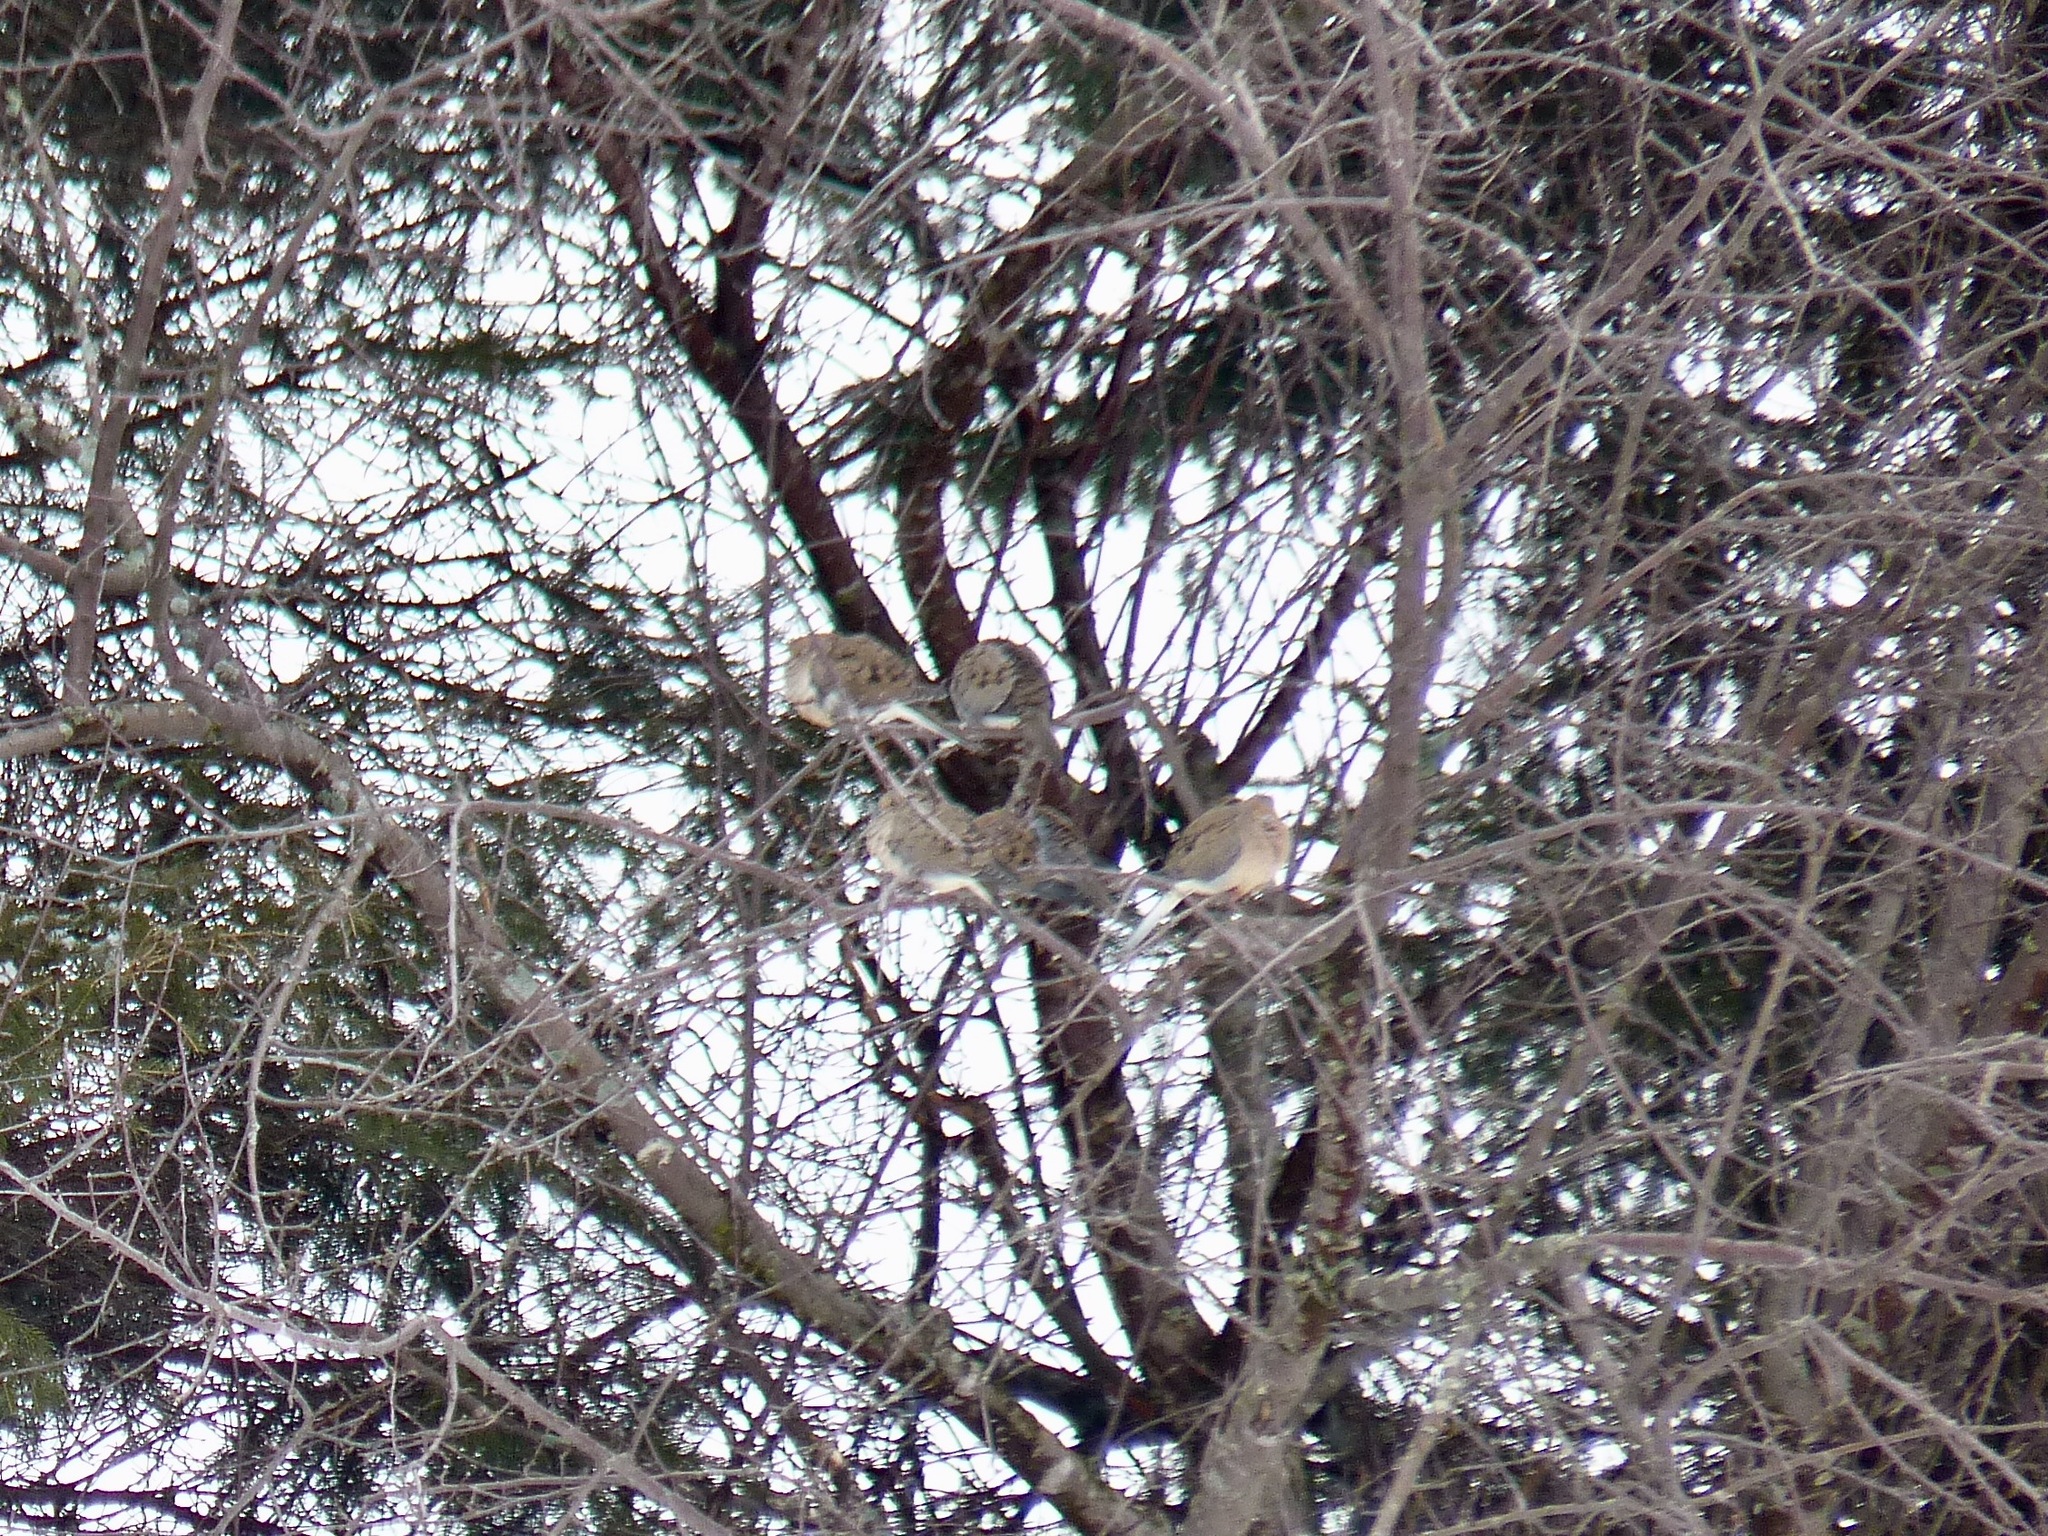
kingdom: Animalia
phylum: Chordata
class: Aves
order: Columbiformes
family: Columbidae
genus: Zenaida
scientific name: Zenaida macroura
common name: Mourning dove
